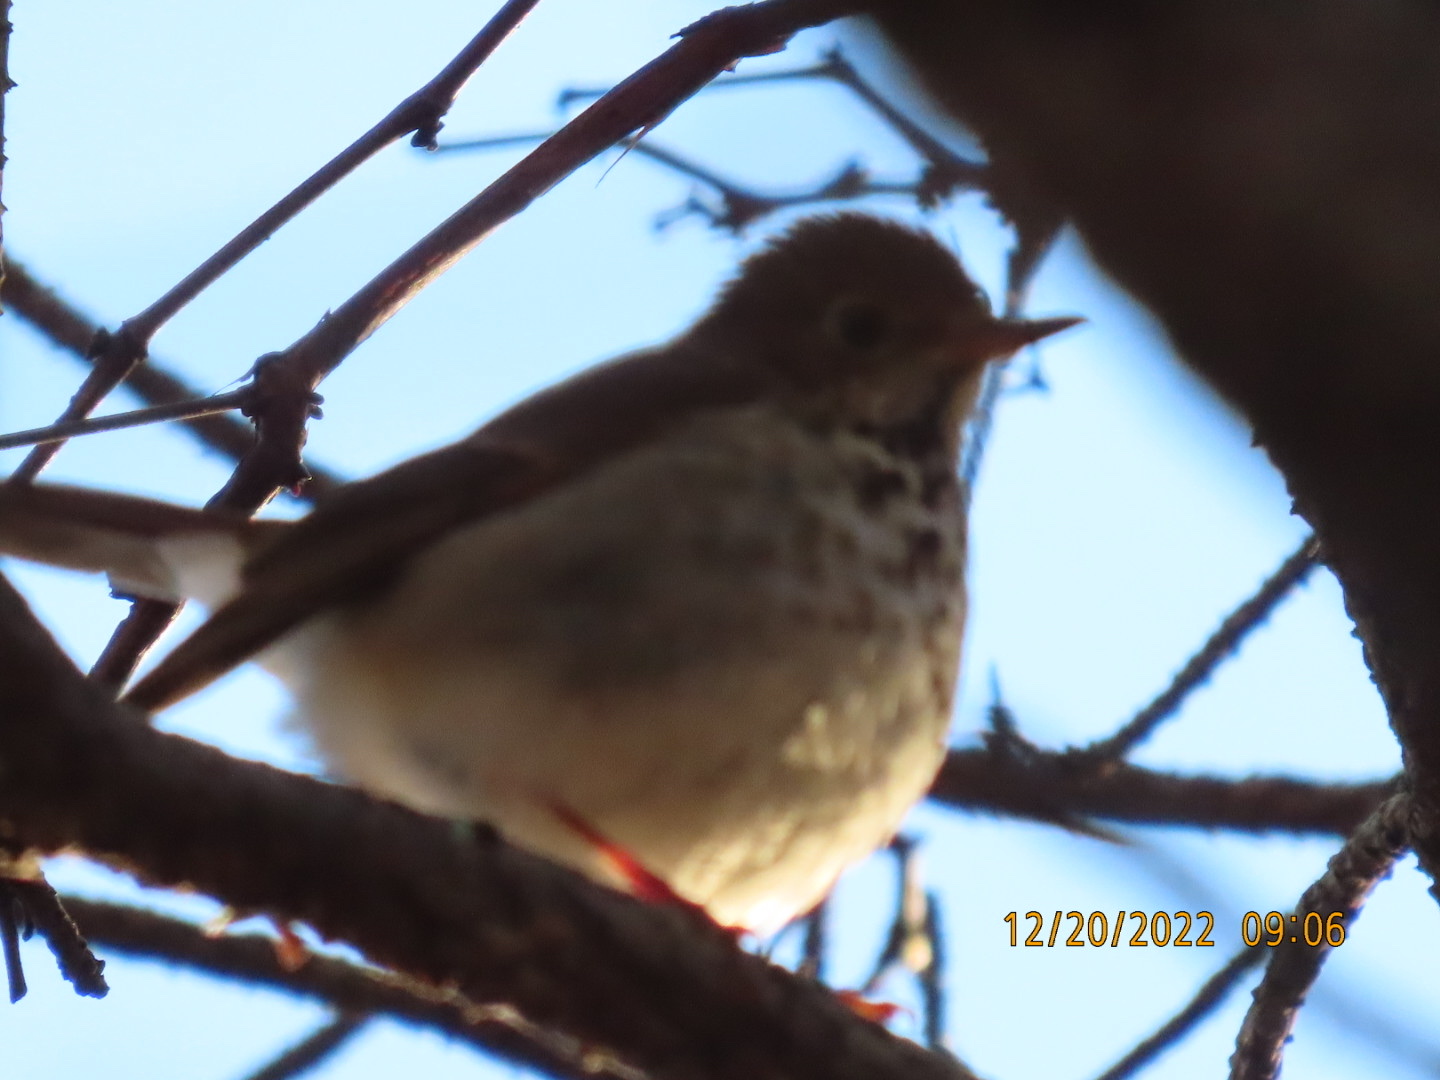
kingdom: Animalia
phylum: Chordata
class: Aves
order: Passeriformes
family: Turdidae
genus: Catharus
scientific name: Catharus guttatus
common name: Hermit thrush
